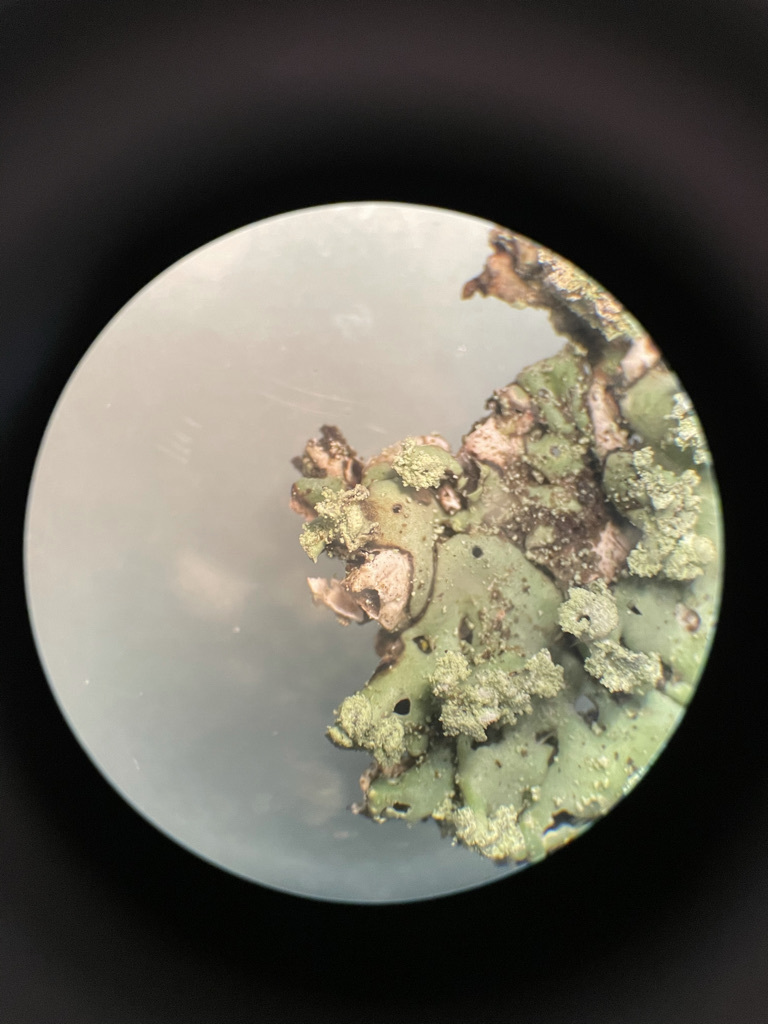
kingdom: Fungi
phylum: Ascomycota
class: Lecanoromycetes
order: Lecanorales
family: Parmeliaceae
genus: Menegazzia
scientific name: Menegazzia subsimilis
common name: Tree flute lichen
